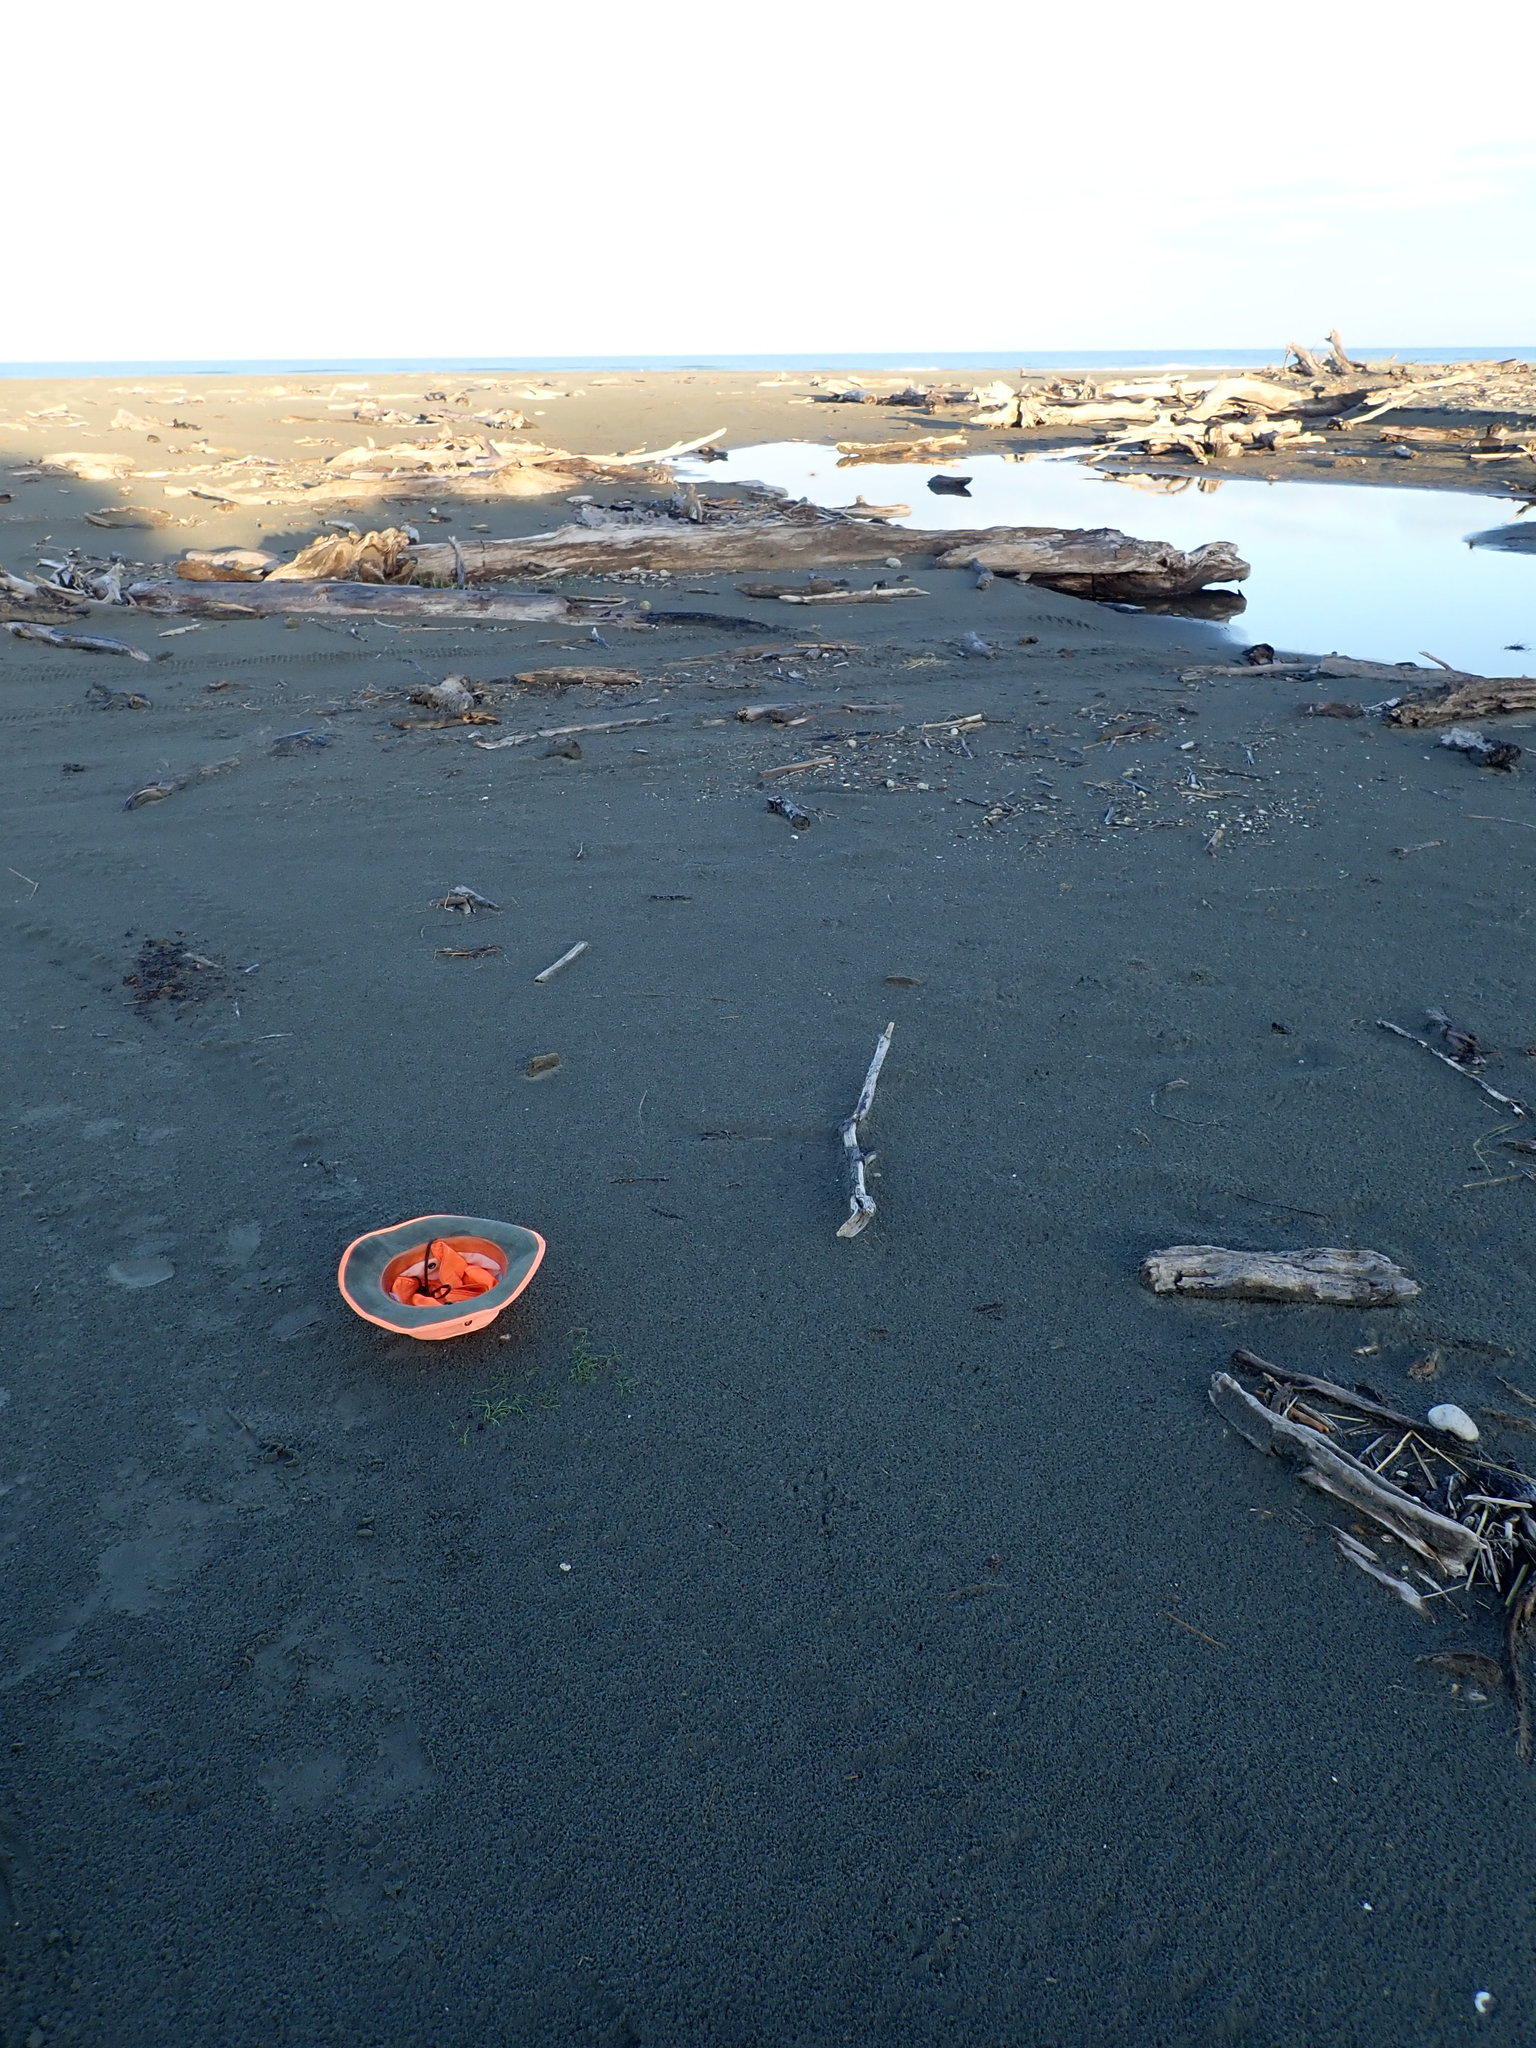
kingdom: Plantae
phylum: Tracheophyta
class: Liliopsida
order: Alismatales
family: Juncaginaceae
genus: Triglochin
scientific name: Triglochin striata
